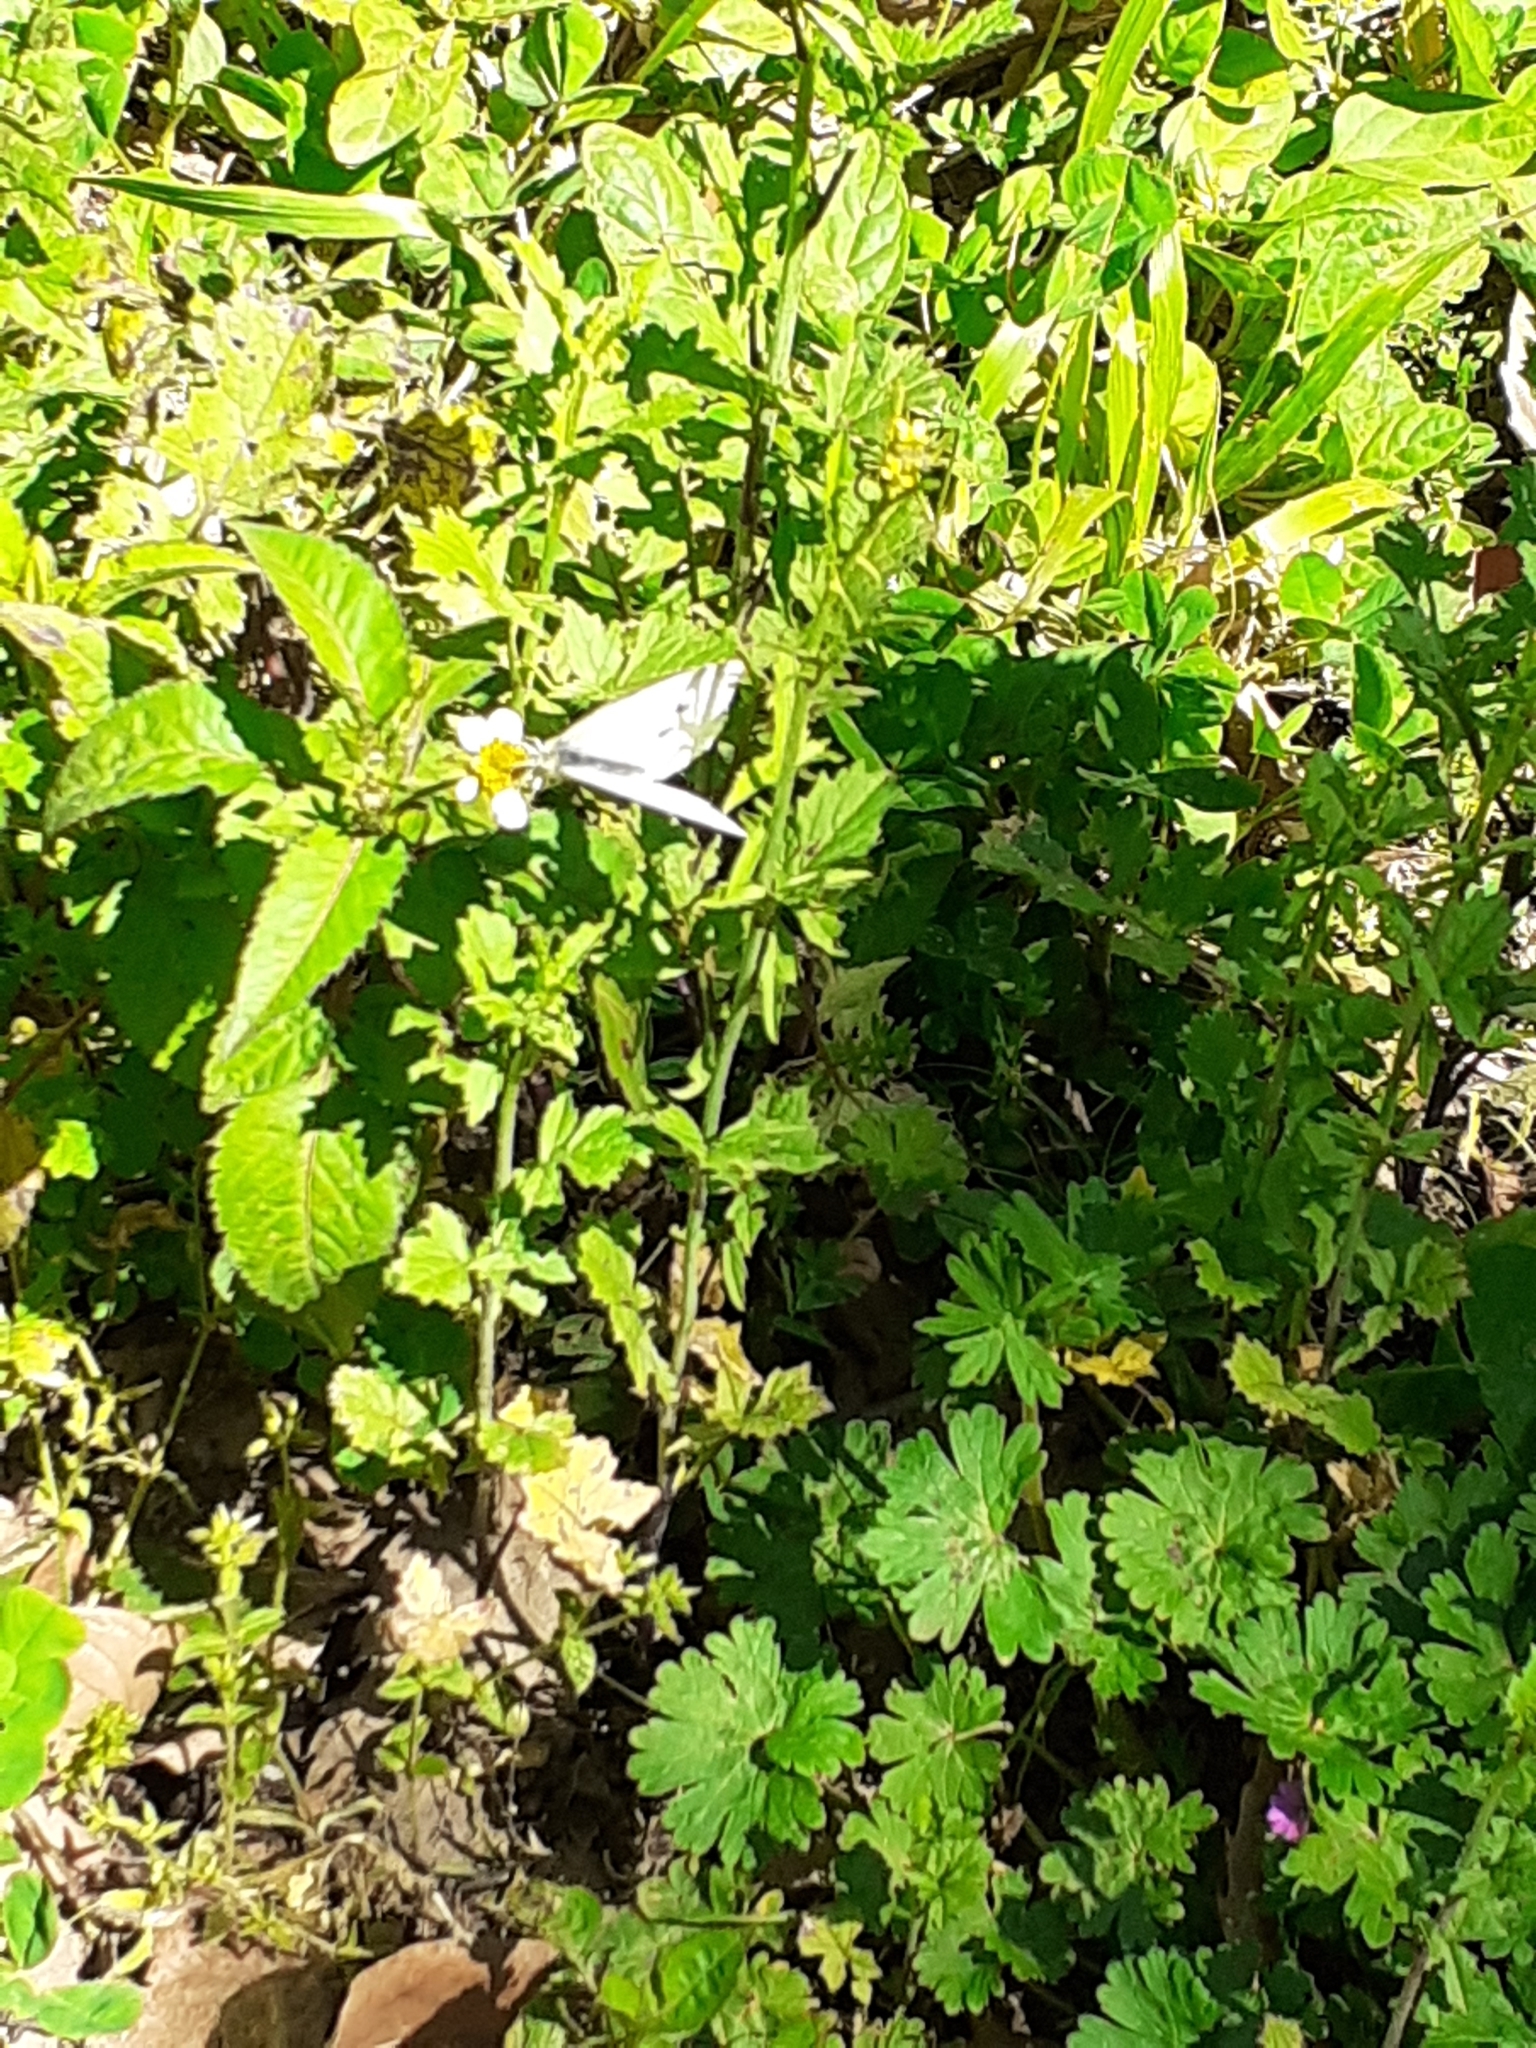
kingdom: Animalia
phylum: Arthropoda
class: Insecta
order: Lepidoptera
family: Pieridae
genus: Pieris
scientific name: Pieris rapae
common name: Small white
